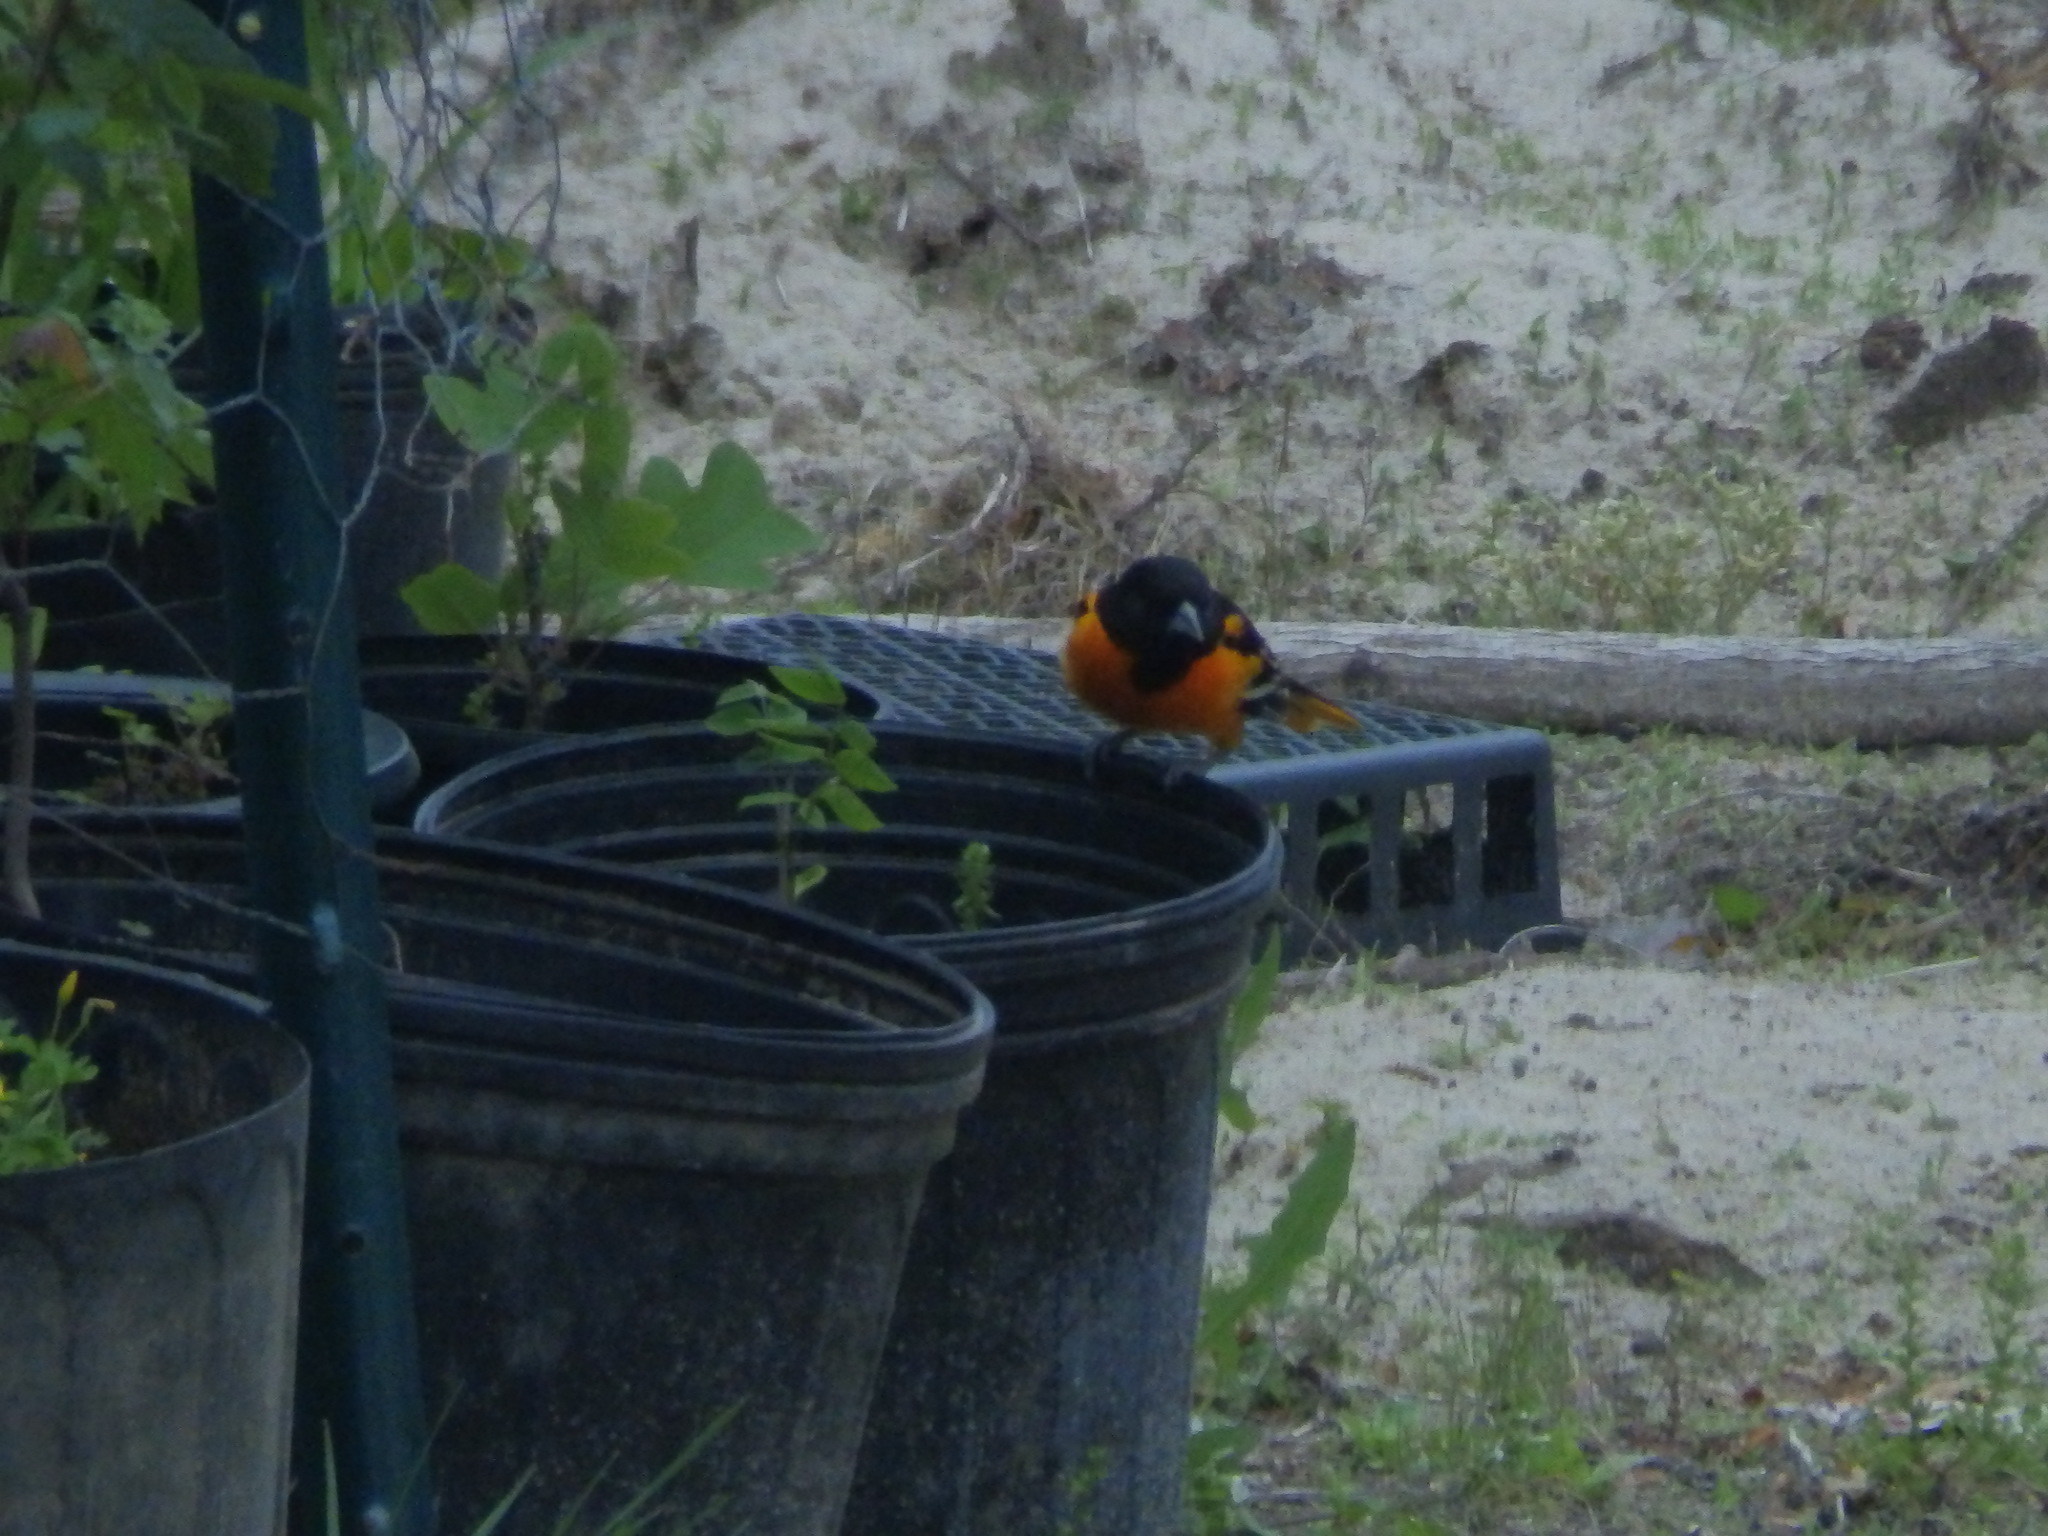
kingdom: Animalia
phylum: Chordata
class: Aves
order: Passeriformes
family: Icteridae
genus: Icterus
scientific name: Icterus galbula
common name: Baltimore oriole
